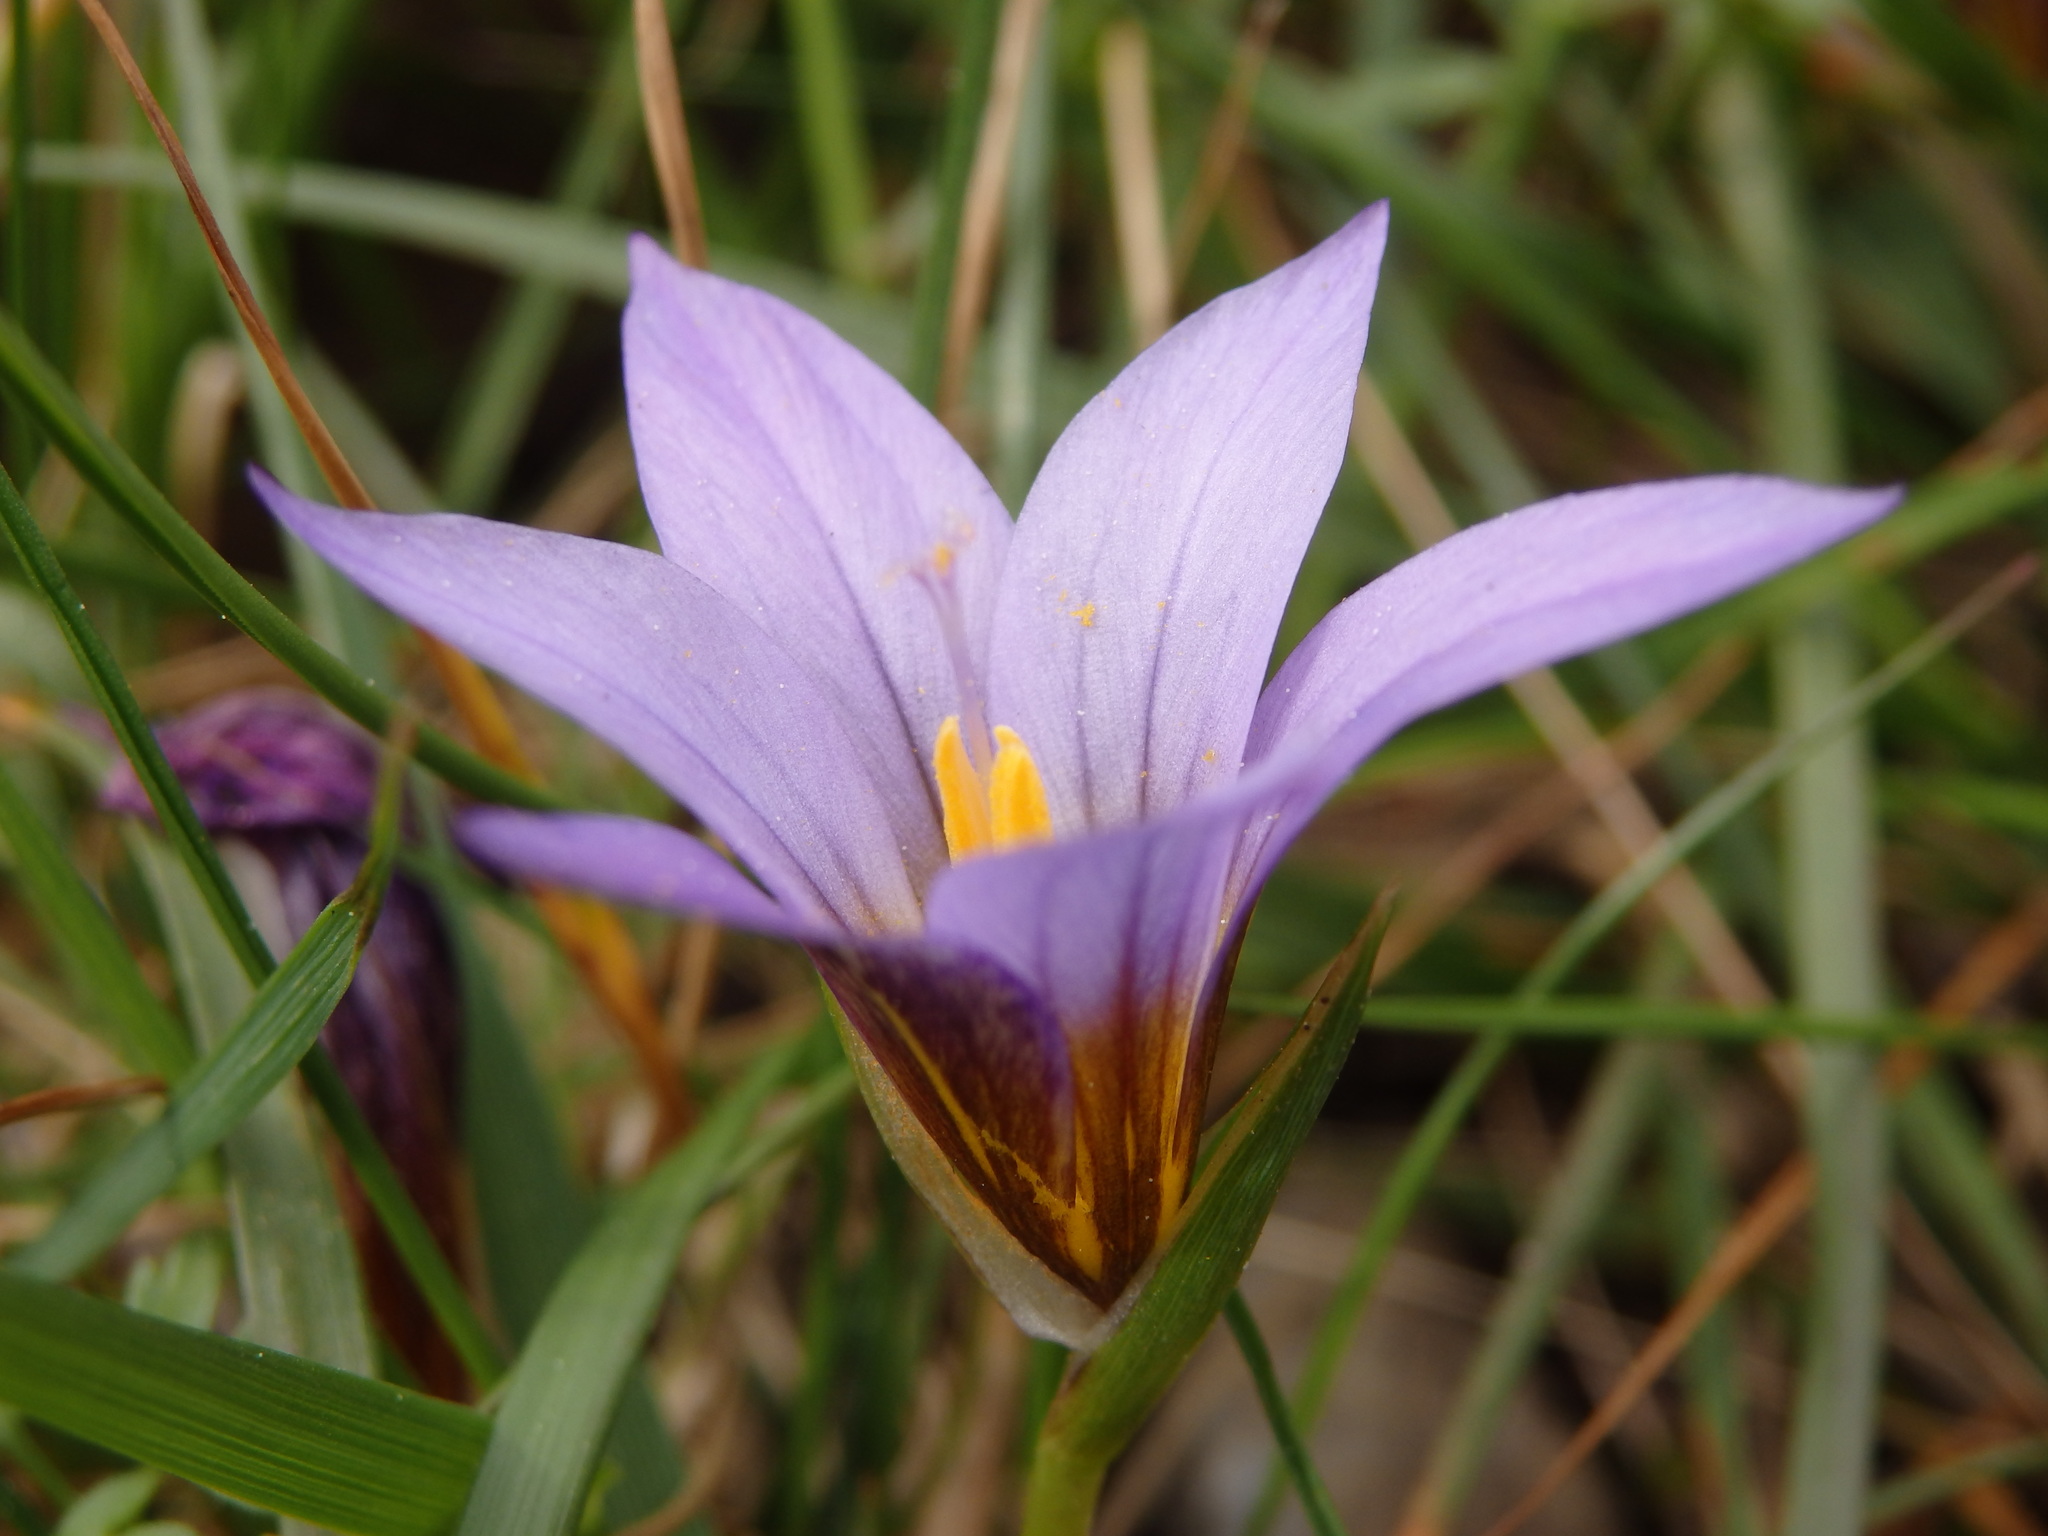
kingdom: Plantae
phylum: Tracheophyta
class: Liliopsida
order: Asparagales
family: Iridaceae
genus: Romulea
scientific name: Romulea bulbocodium
